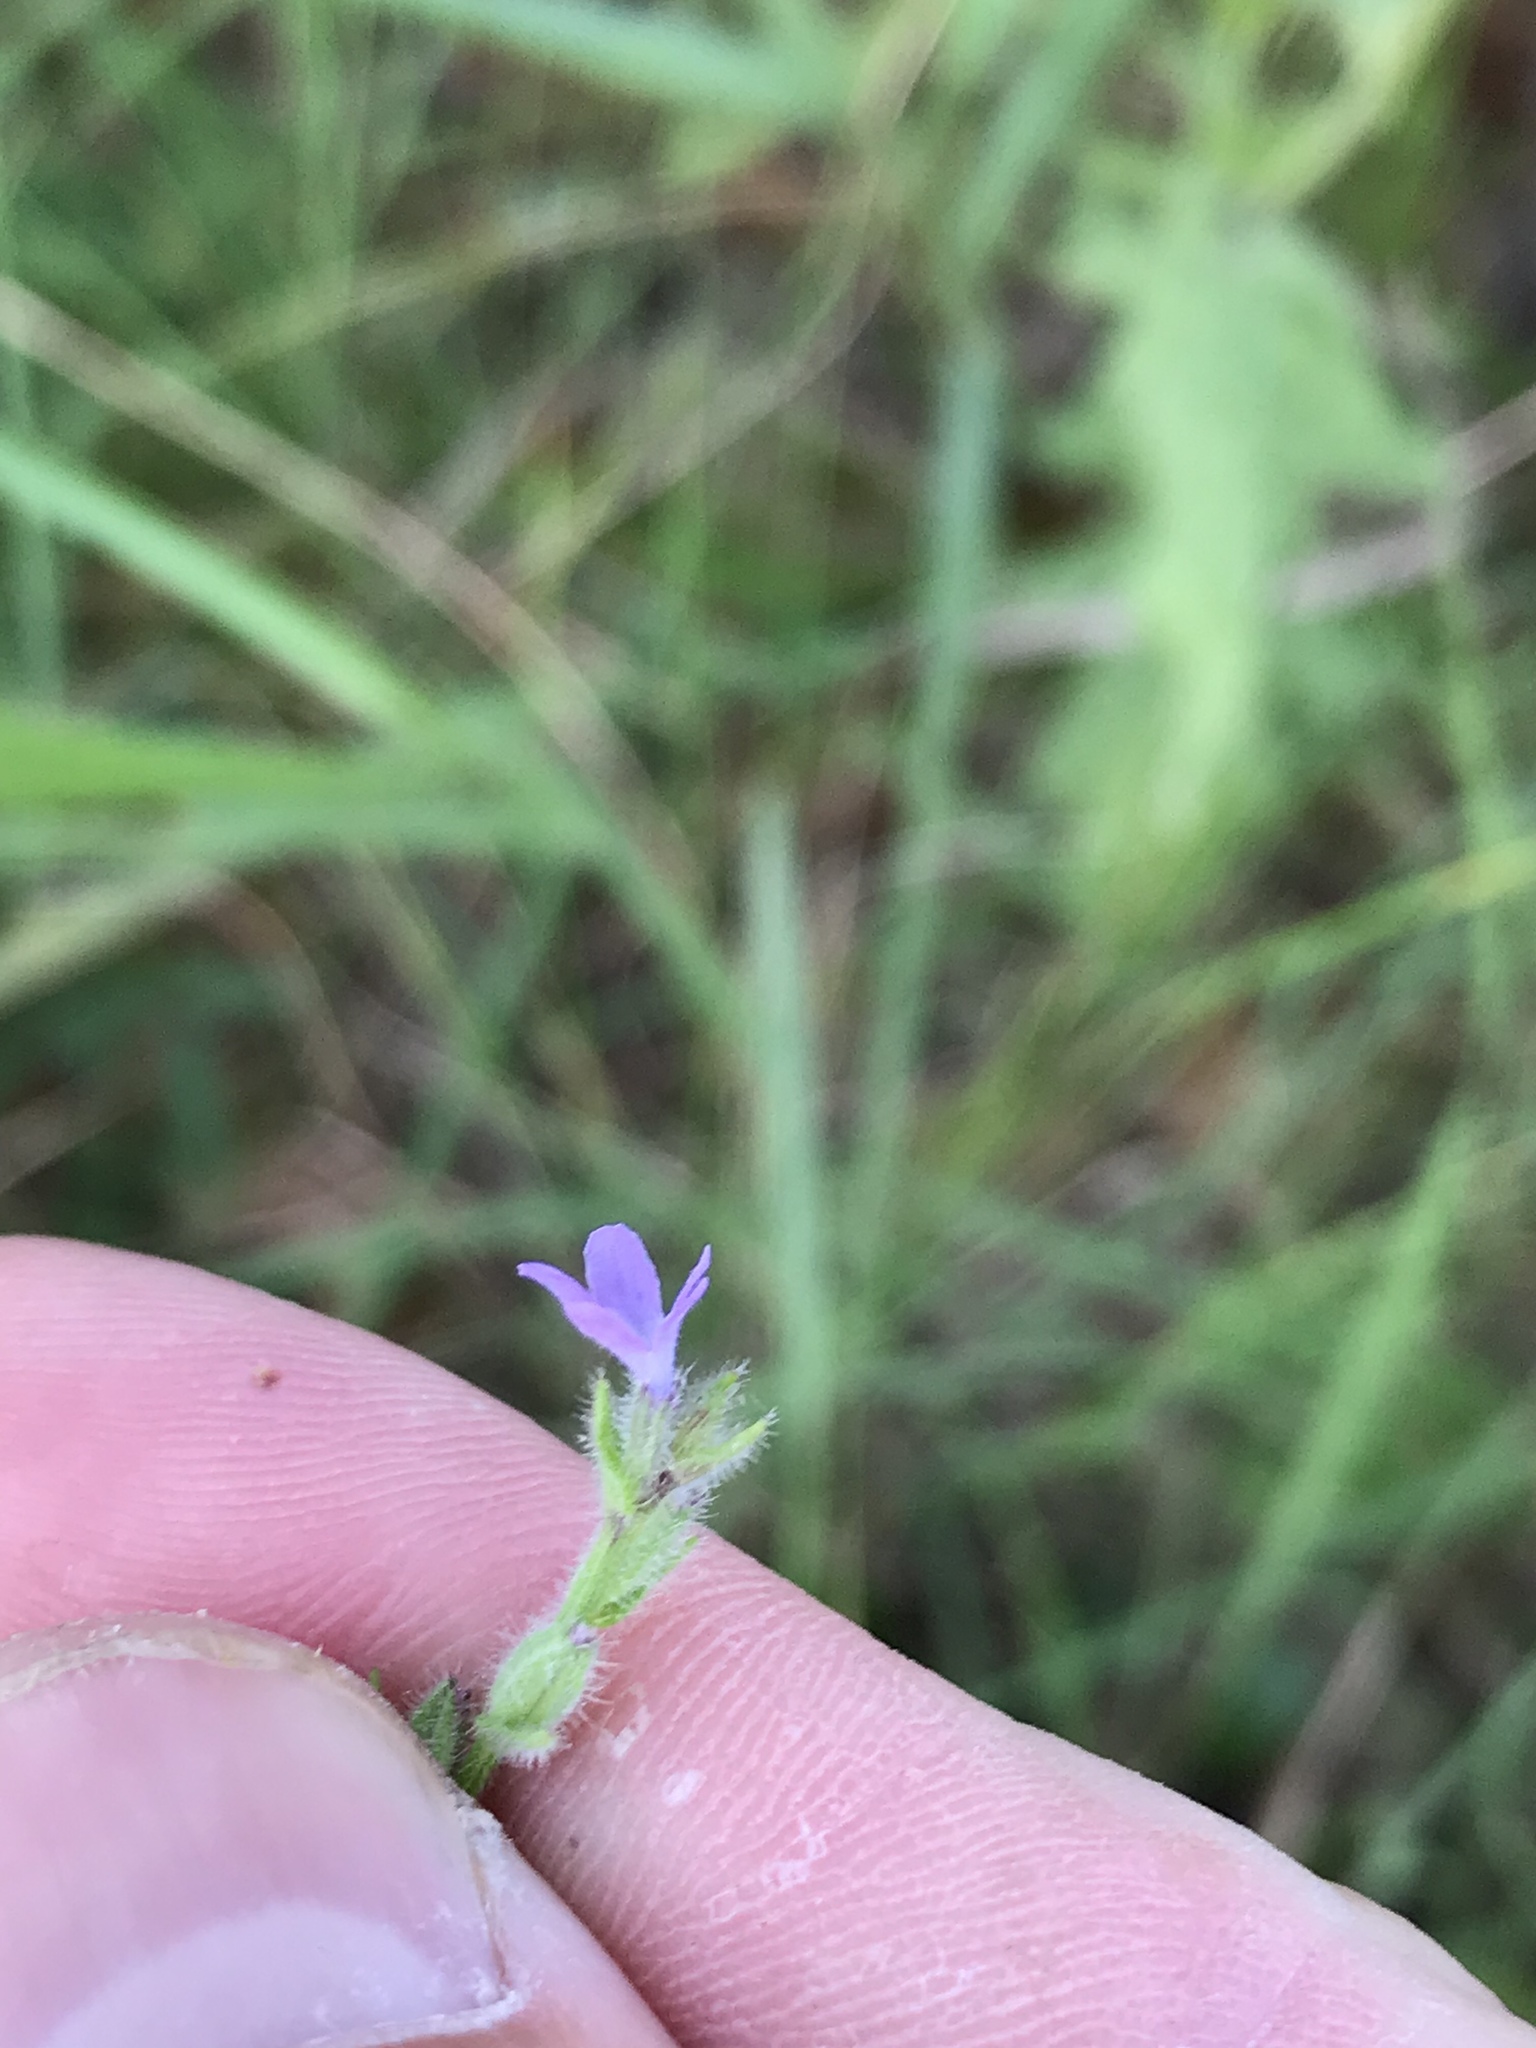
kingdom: Plantae
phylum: Tracheophyta
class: Magnoliopsida
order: Lamiales
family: Verbenaceae
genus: Verbena
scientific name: Verbena canescens
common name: Gray vervain
